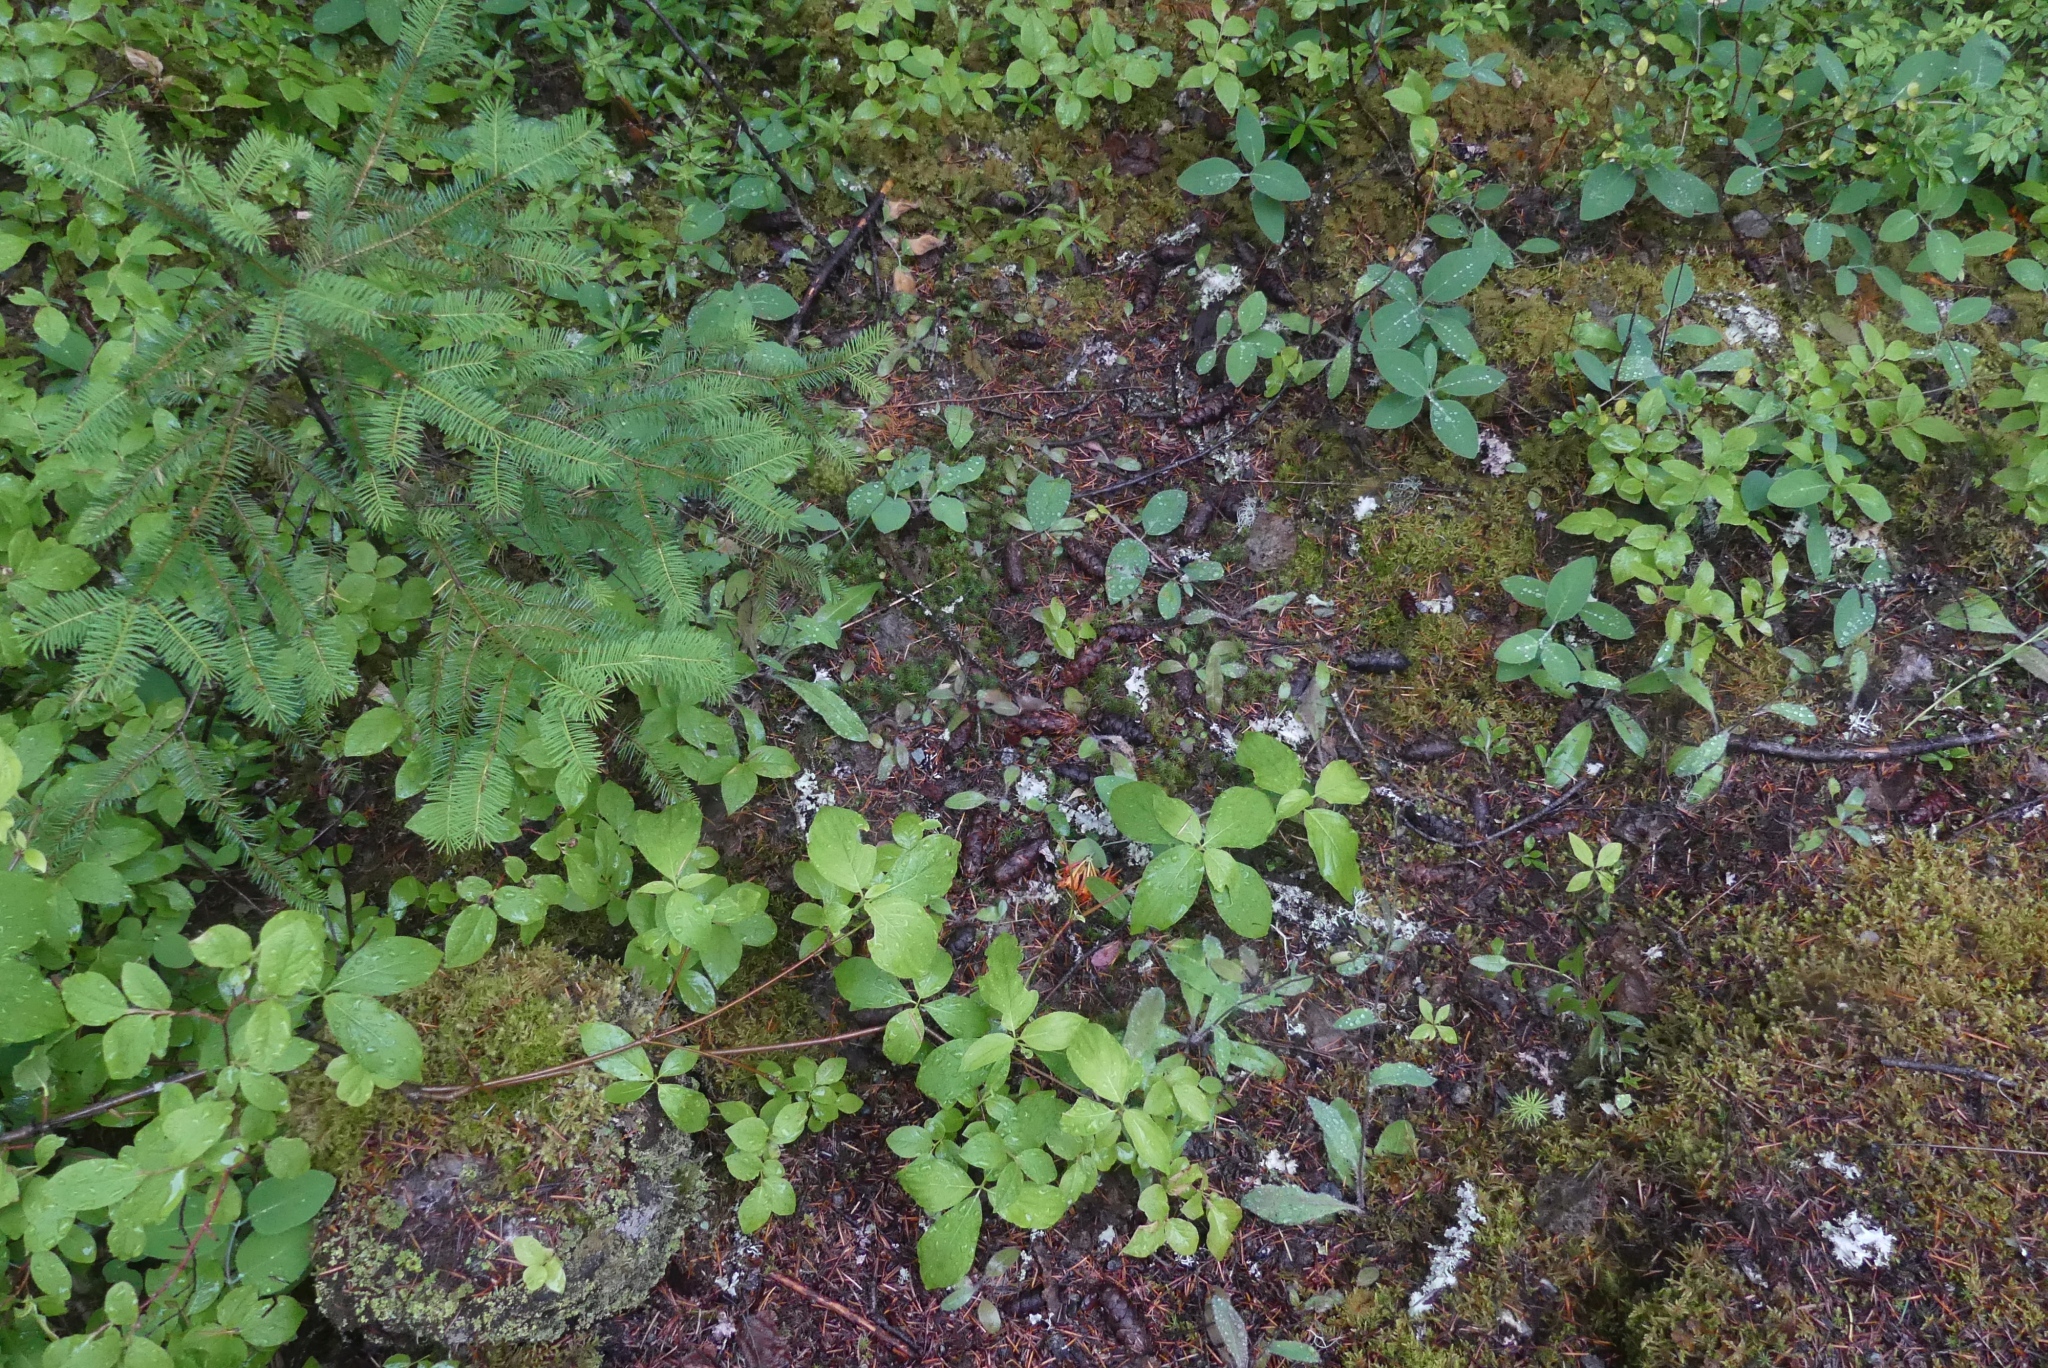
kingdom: Plantae
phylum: Tracheophyta
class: Magnoliopsida
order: Dipsacales
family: Caprifoliaceae
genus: Lonicera
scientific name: Lonicera ciliosa
